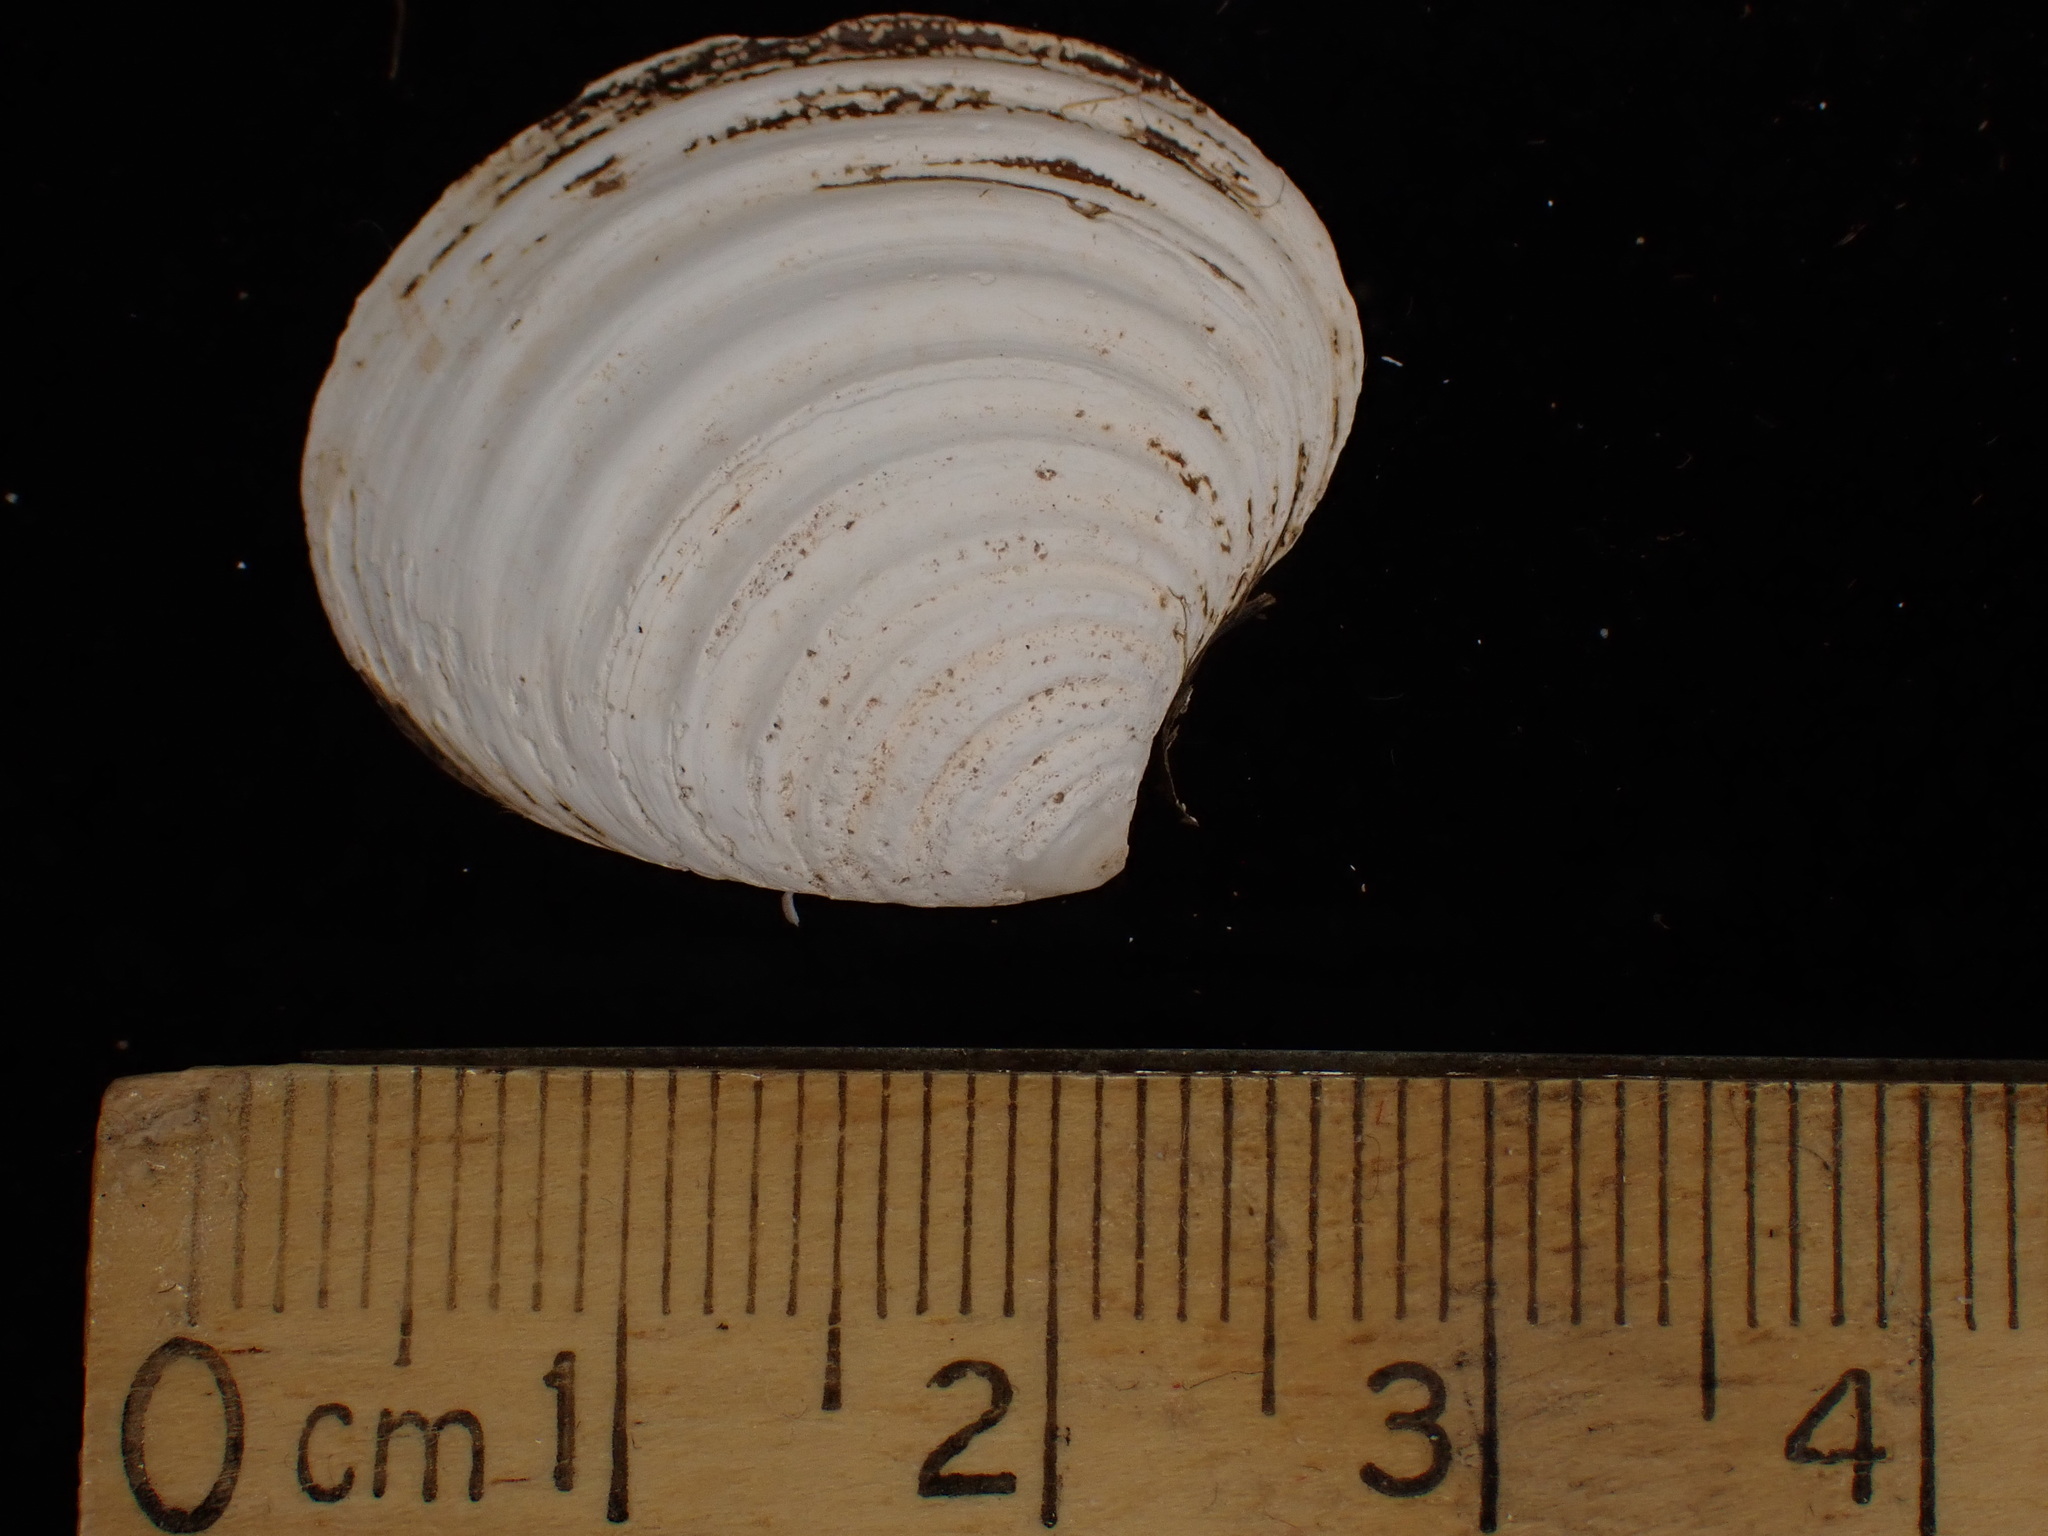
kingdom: Animalia
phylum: Mollusca
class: Bivalvia
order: Carditida
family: Astartidae
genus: Astarte
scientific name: Astarte undata
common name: Wavy astarte
